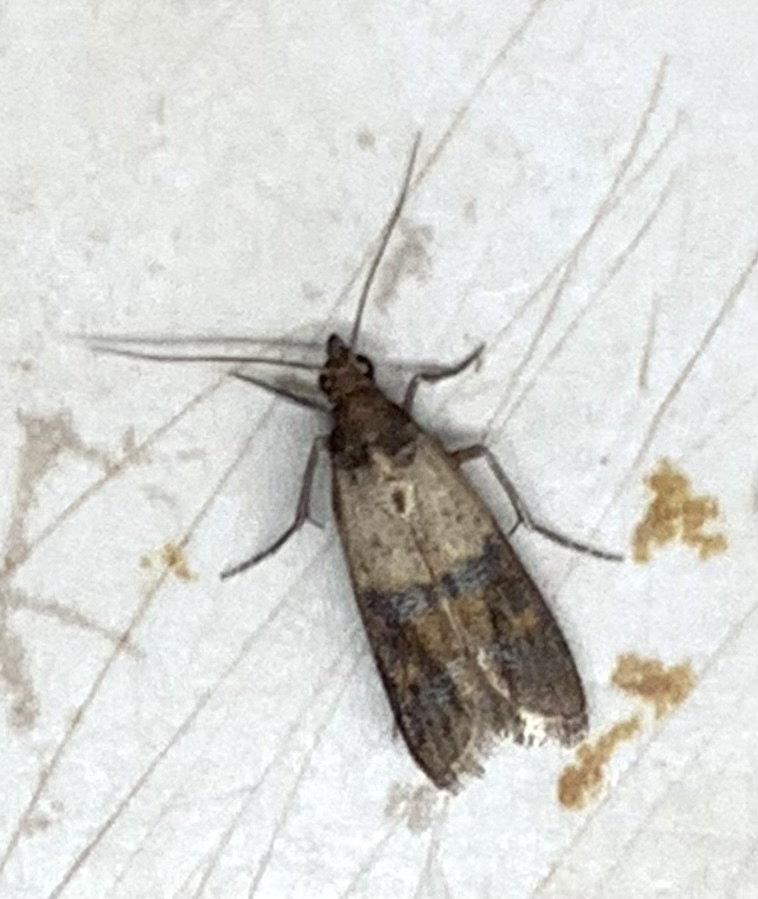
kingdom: Animalia
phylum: Arthropoda
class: Insecta
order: Lepidoptera
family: Pyralidae
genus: Plodia
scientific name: Plodia interpunctella
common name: Indian meal moth
